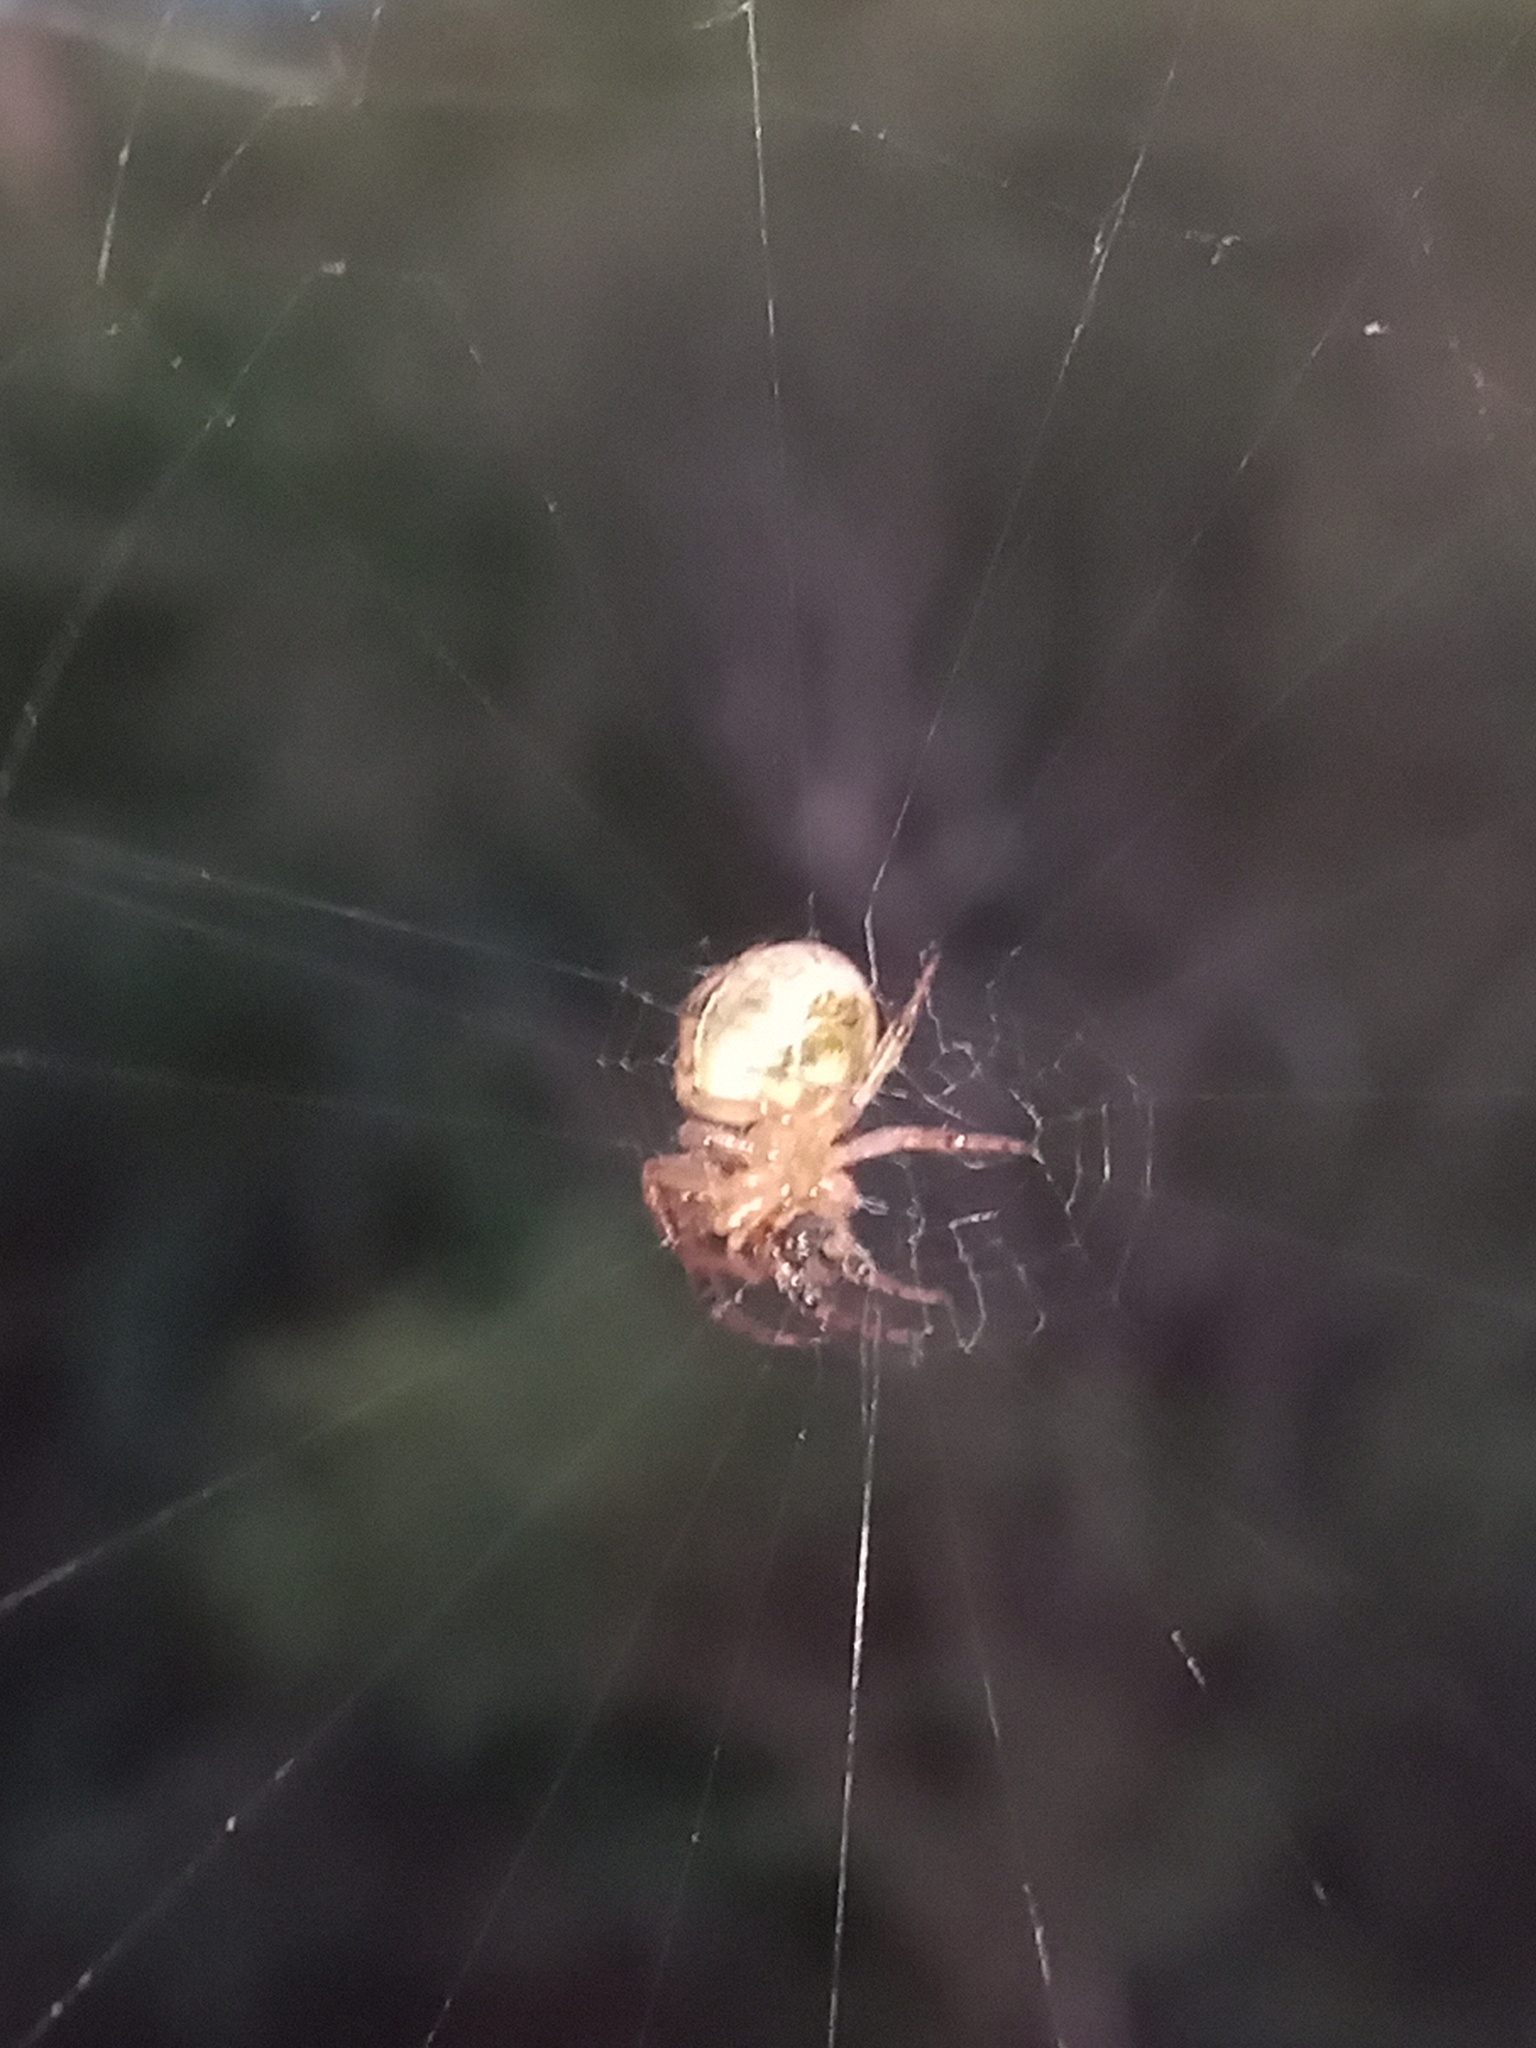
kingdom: Animalia
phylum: Arthropoda
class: Arachnida
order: Araneae
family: Araneidae
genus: Metazygia
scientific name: Metazygia zilloides
